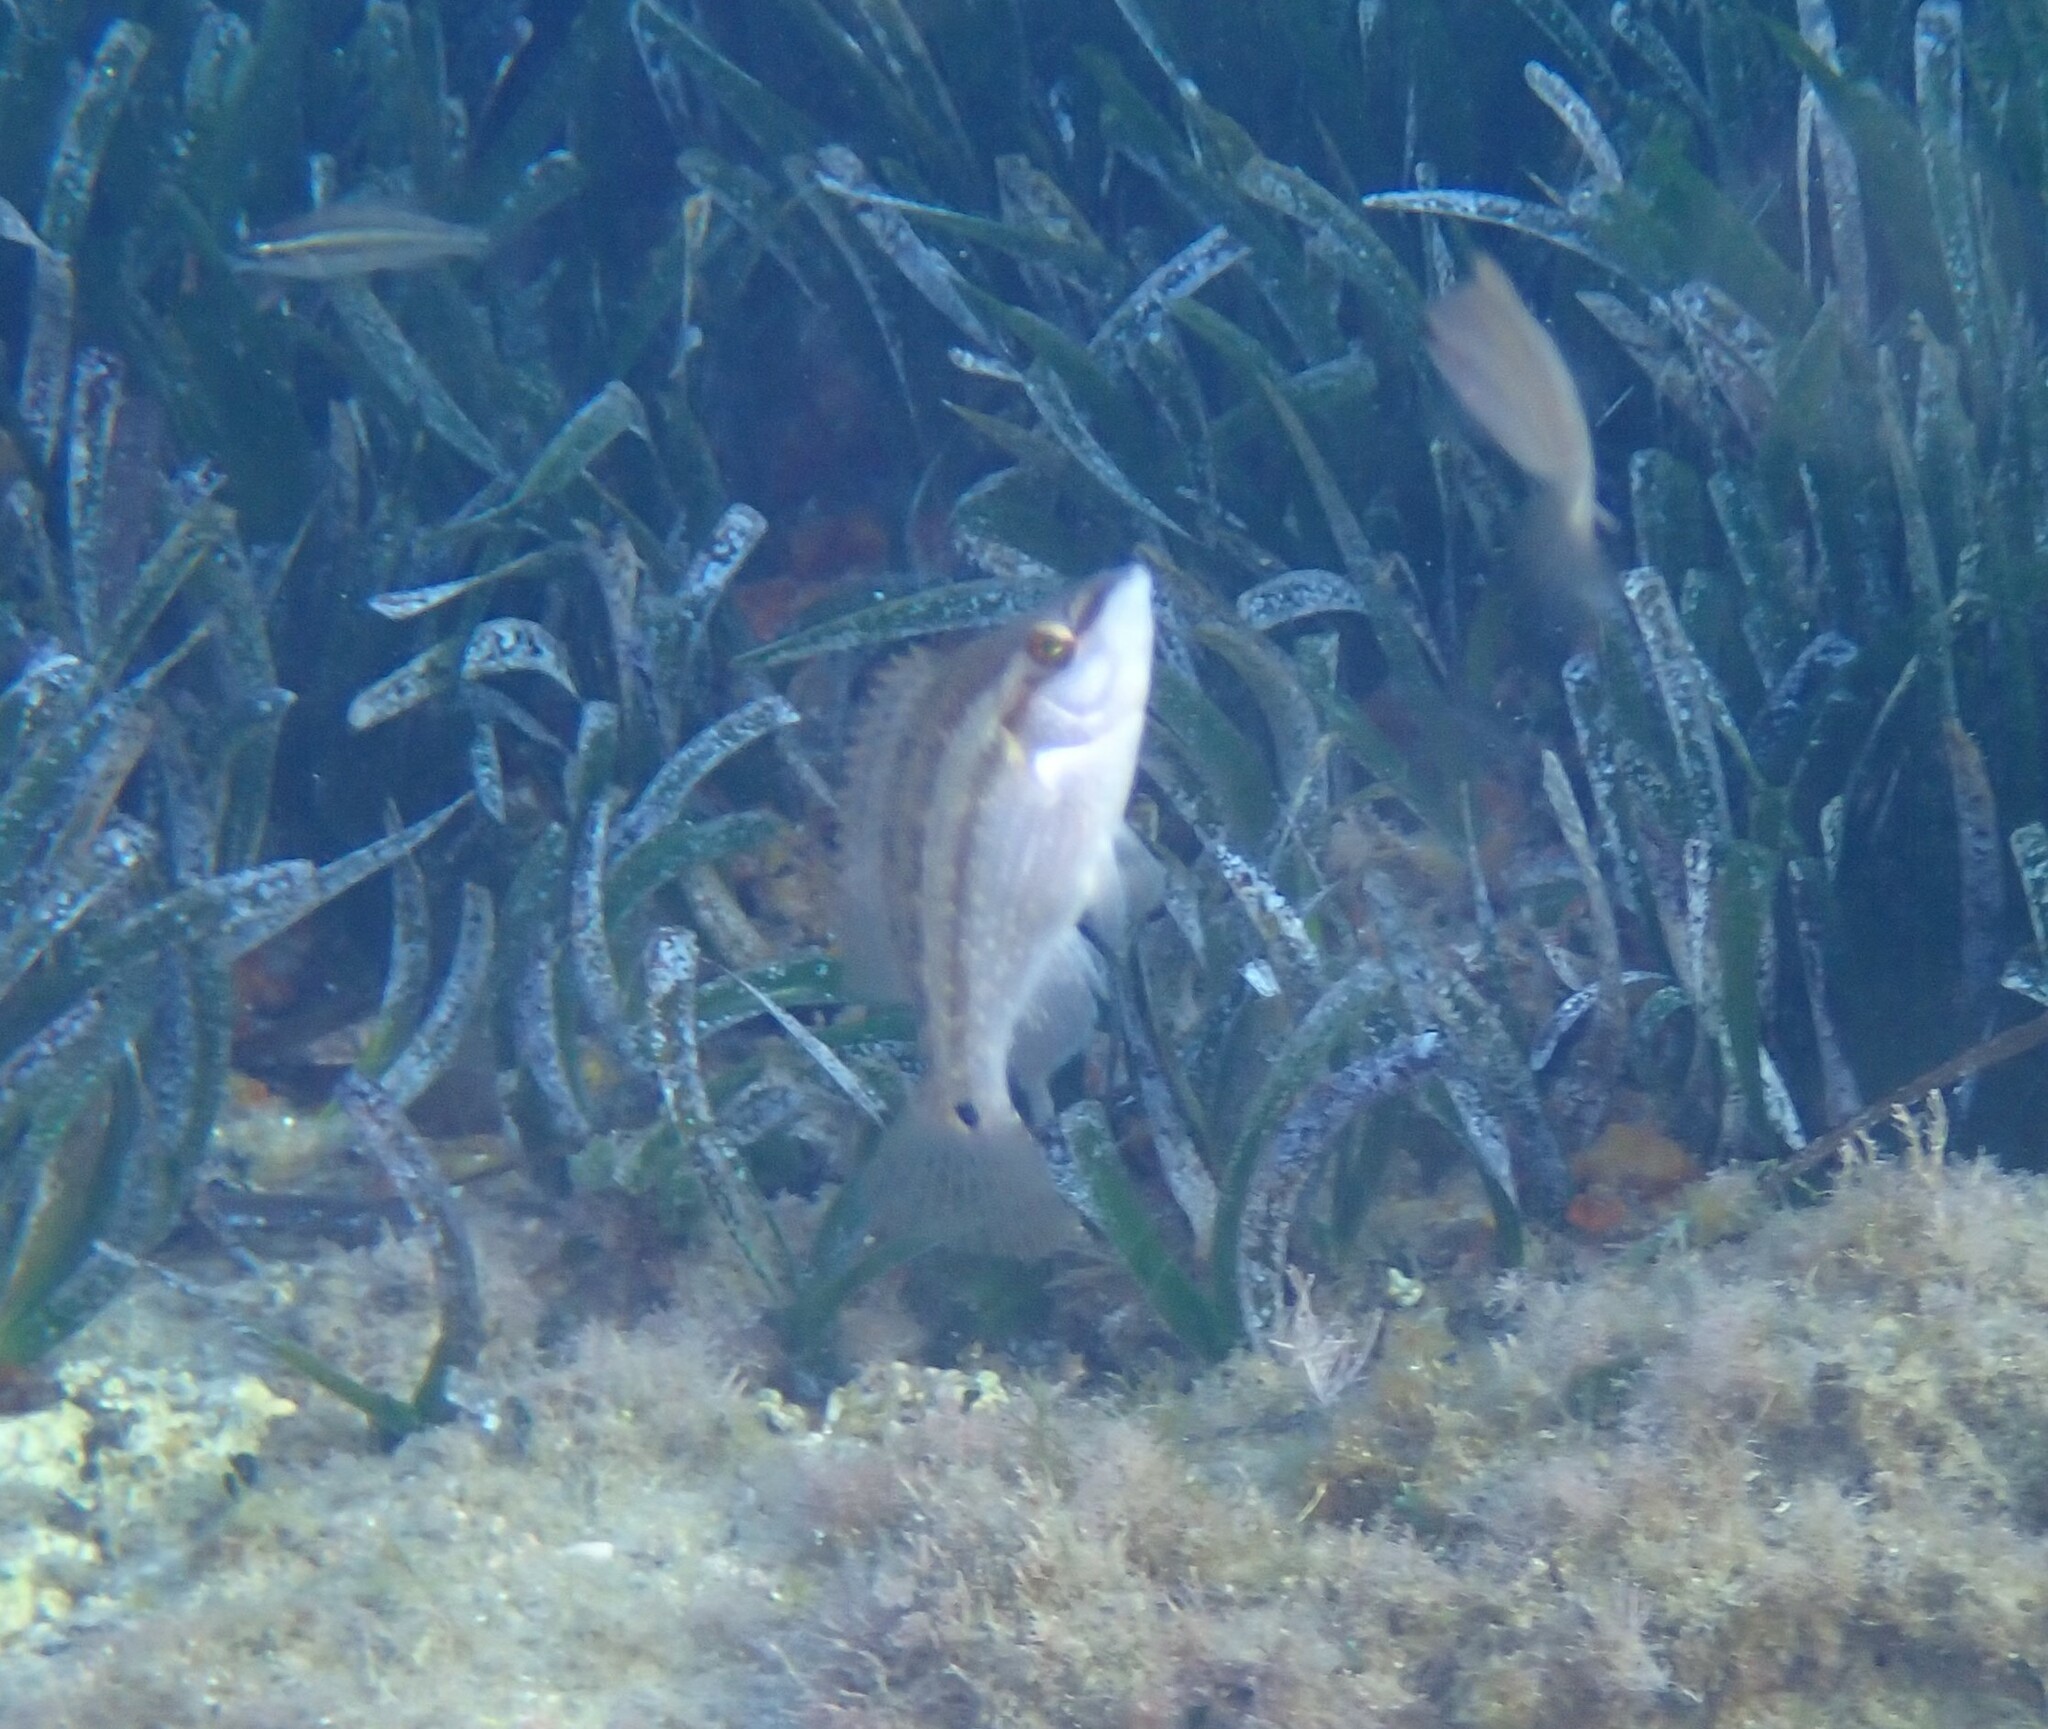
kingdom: Animalia
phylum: Chordata
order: Perciformes
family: Labridae
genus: Symphodus
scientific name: Symphodus tinca
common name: Peacock wrasse
